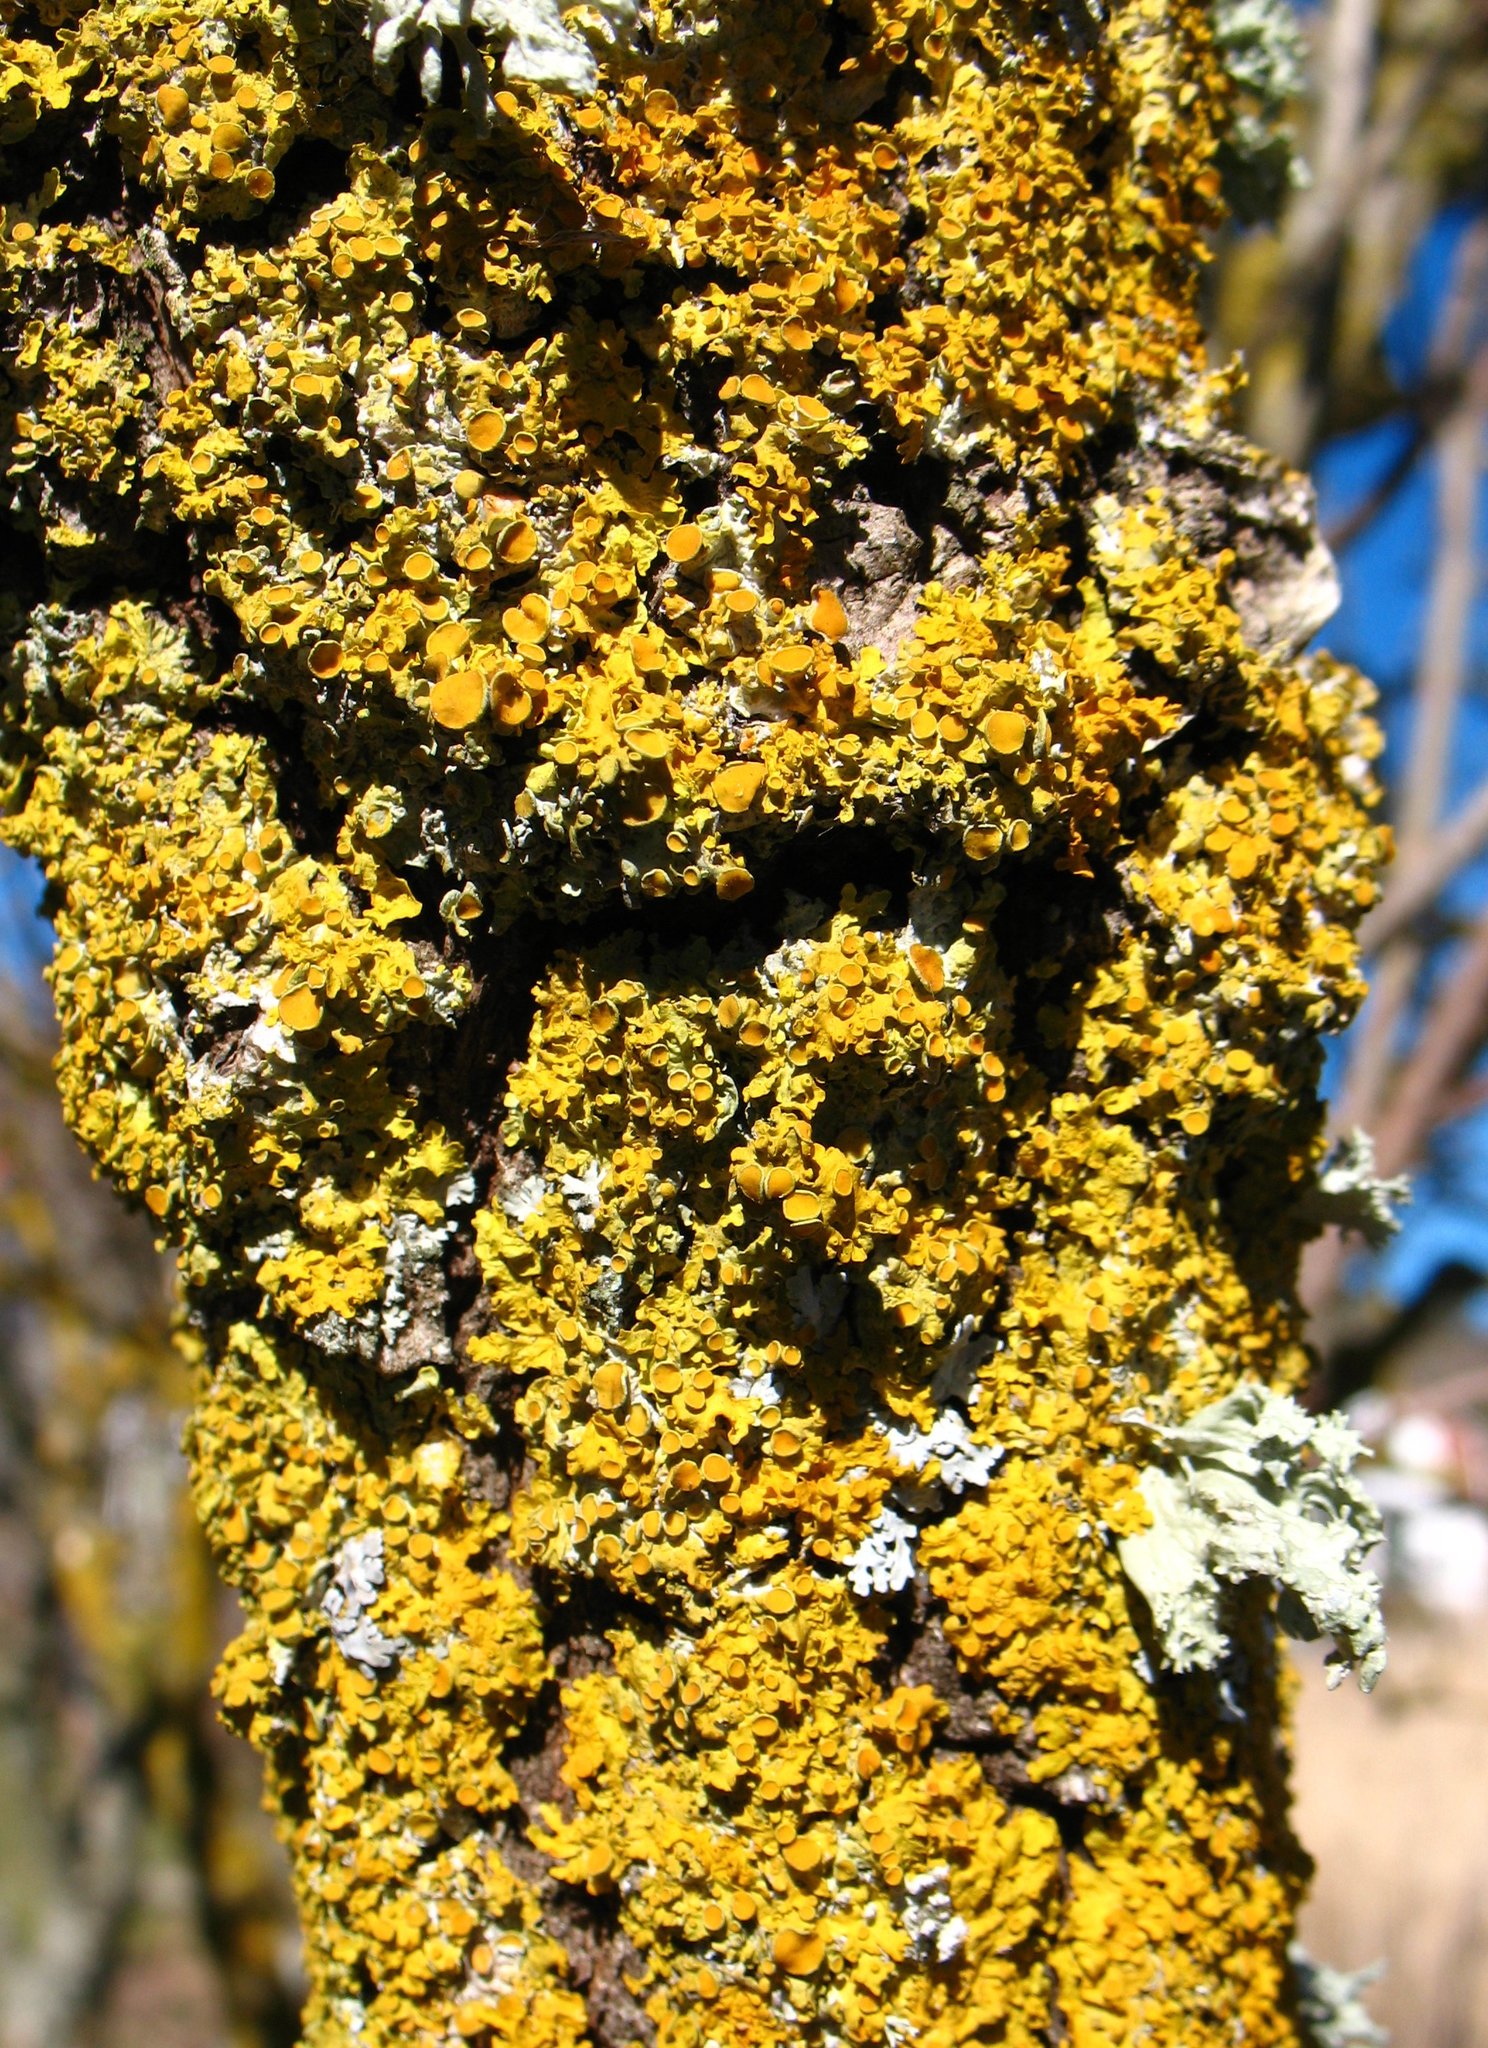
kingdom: Fungi
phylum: Ascomycota
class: Lecanoromycetes
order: Teloschistales
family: Teloschistaceae
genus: Xanthoria
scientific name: Xanthoria parietina
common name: Common orange lichen
